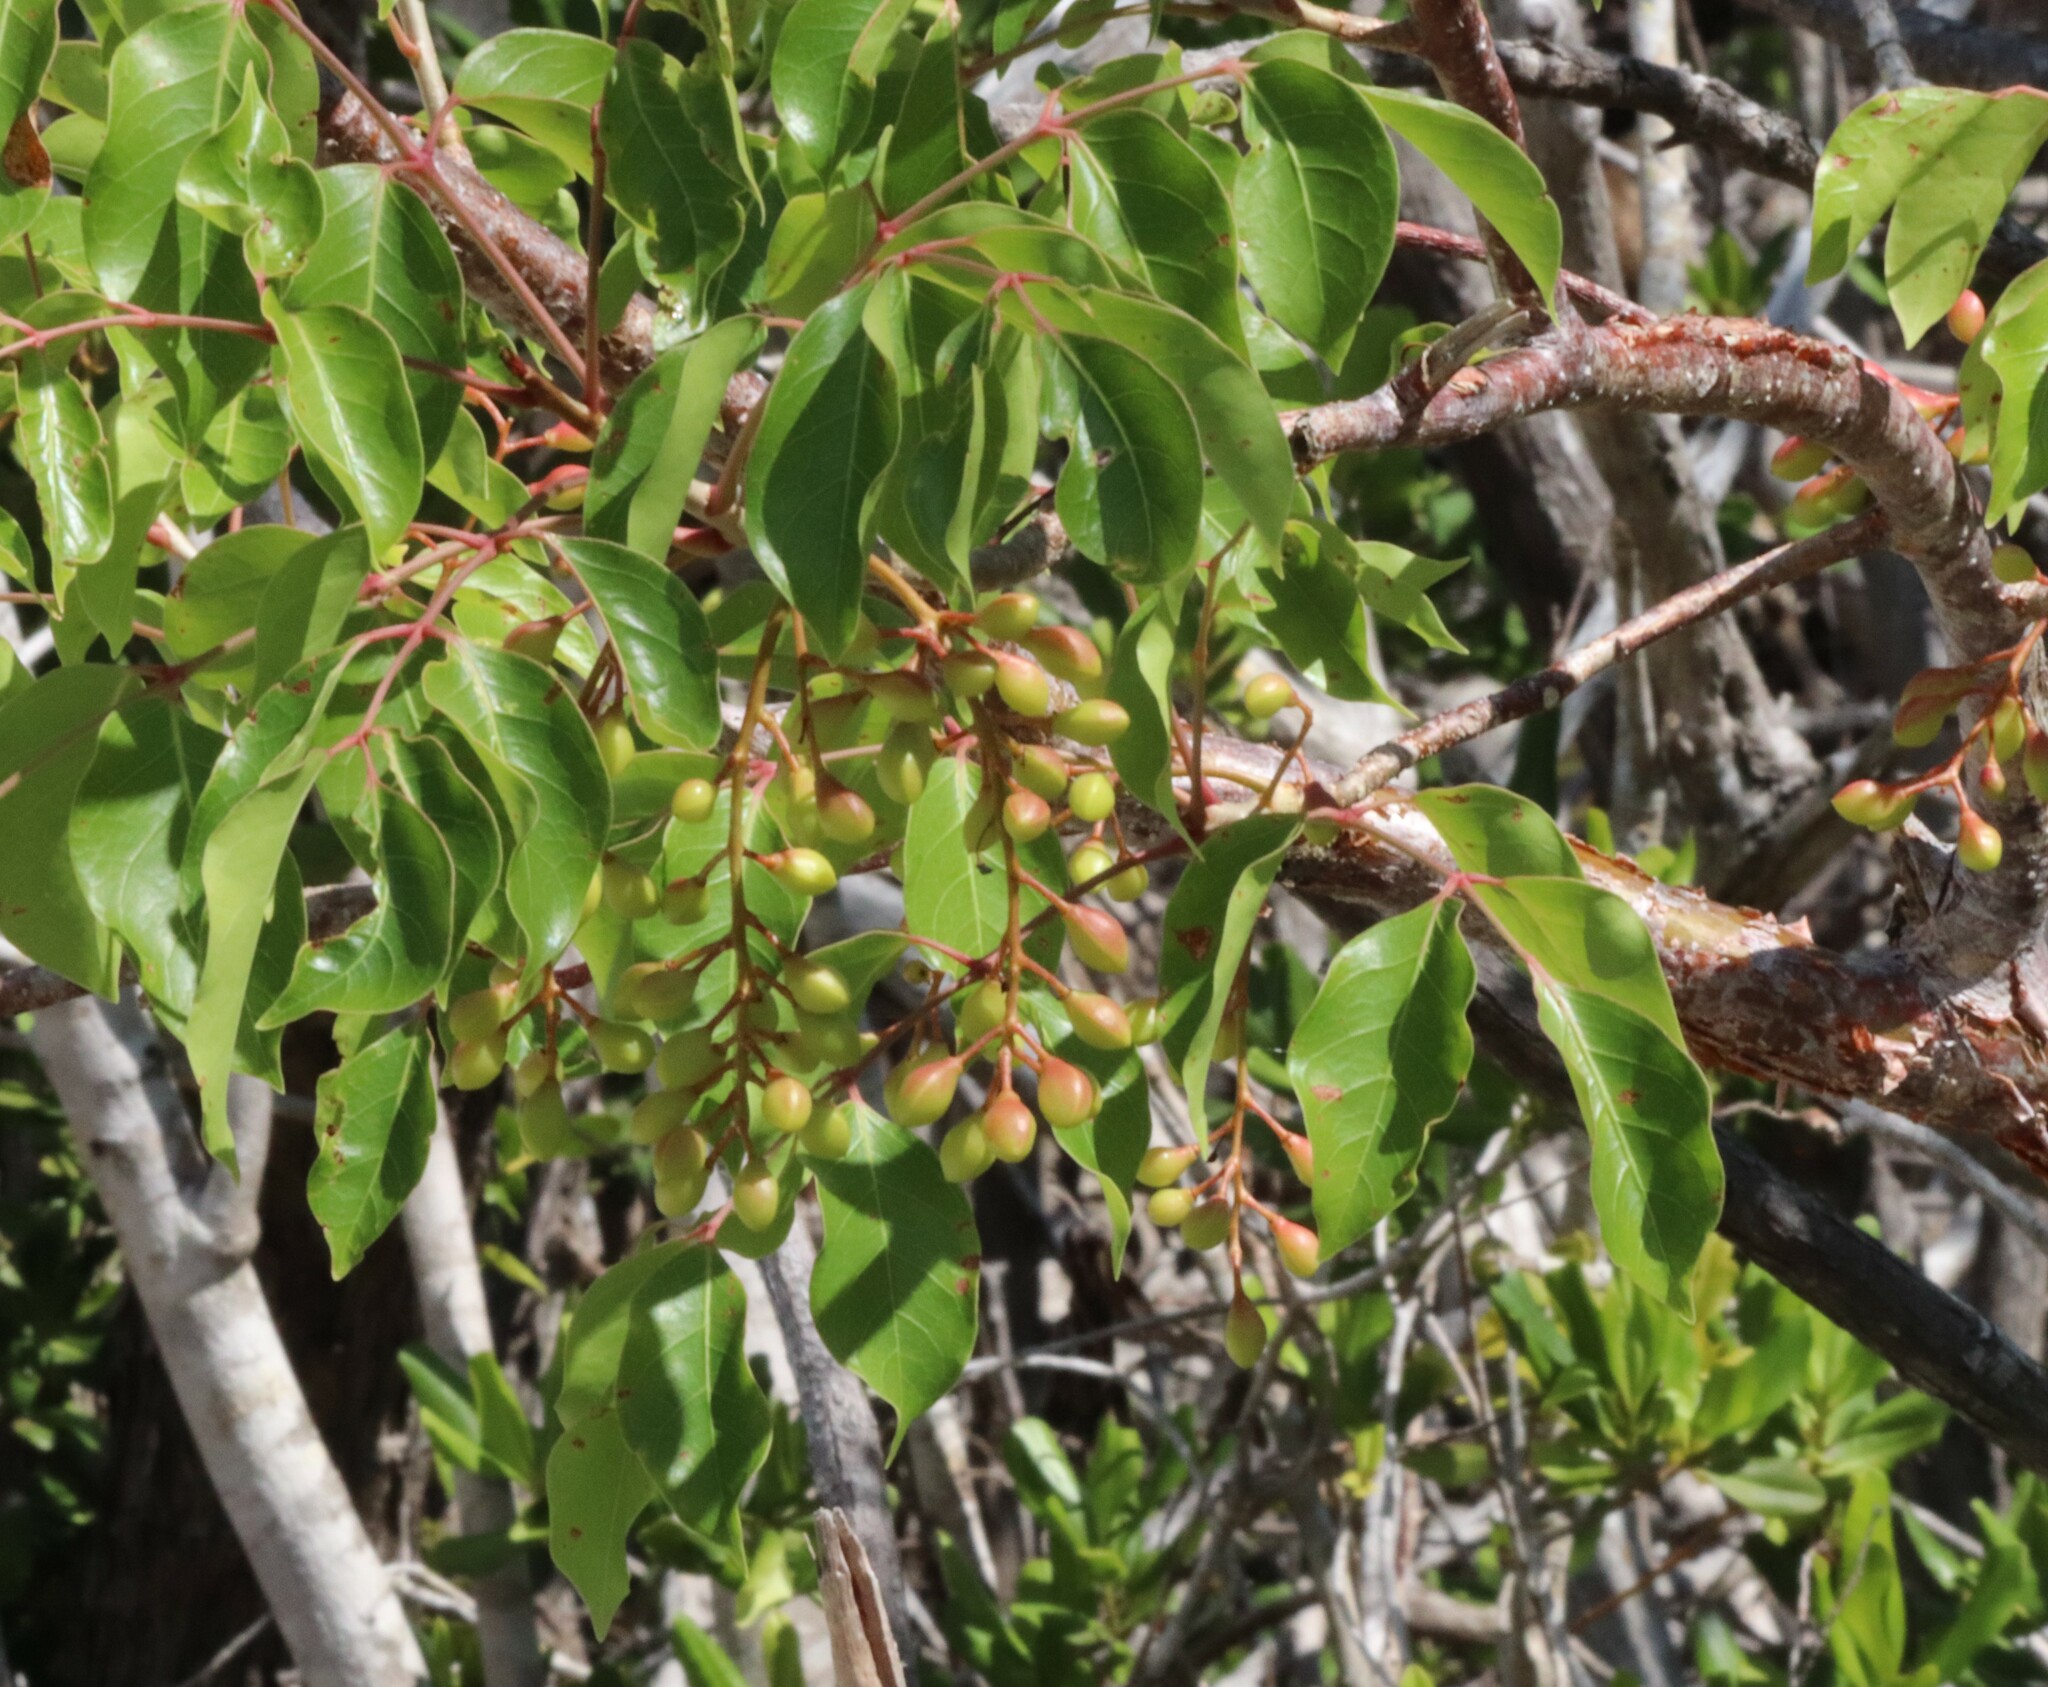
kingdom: Plantae
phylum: Tracheophyta
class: Magnoliopsida
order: Sapindales
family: Burseraceae
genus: Bursera
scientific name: Bursera simaruba
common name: Turpentine tree
